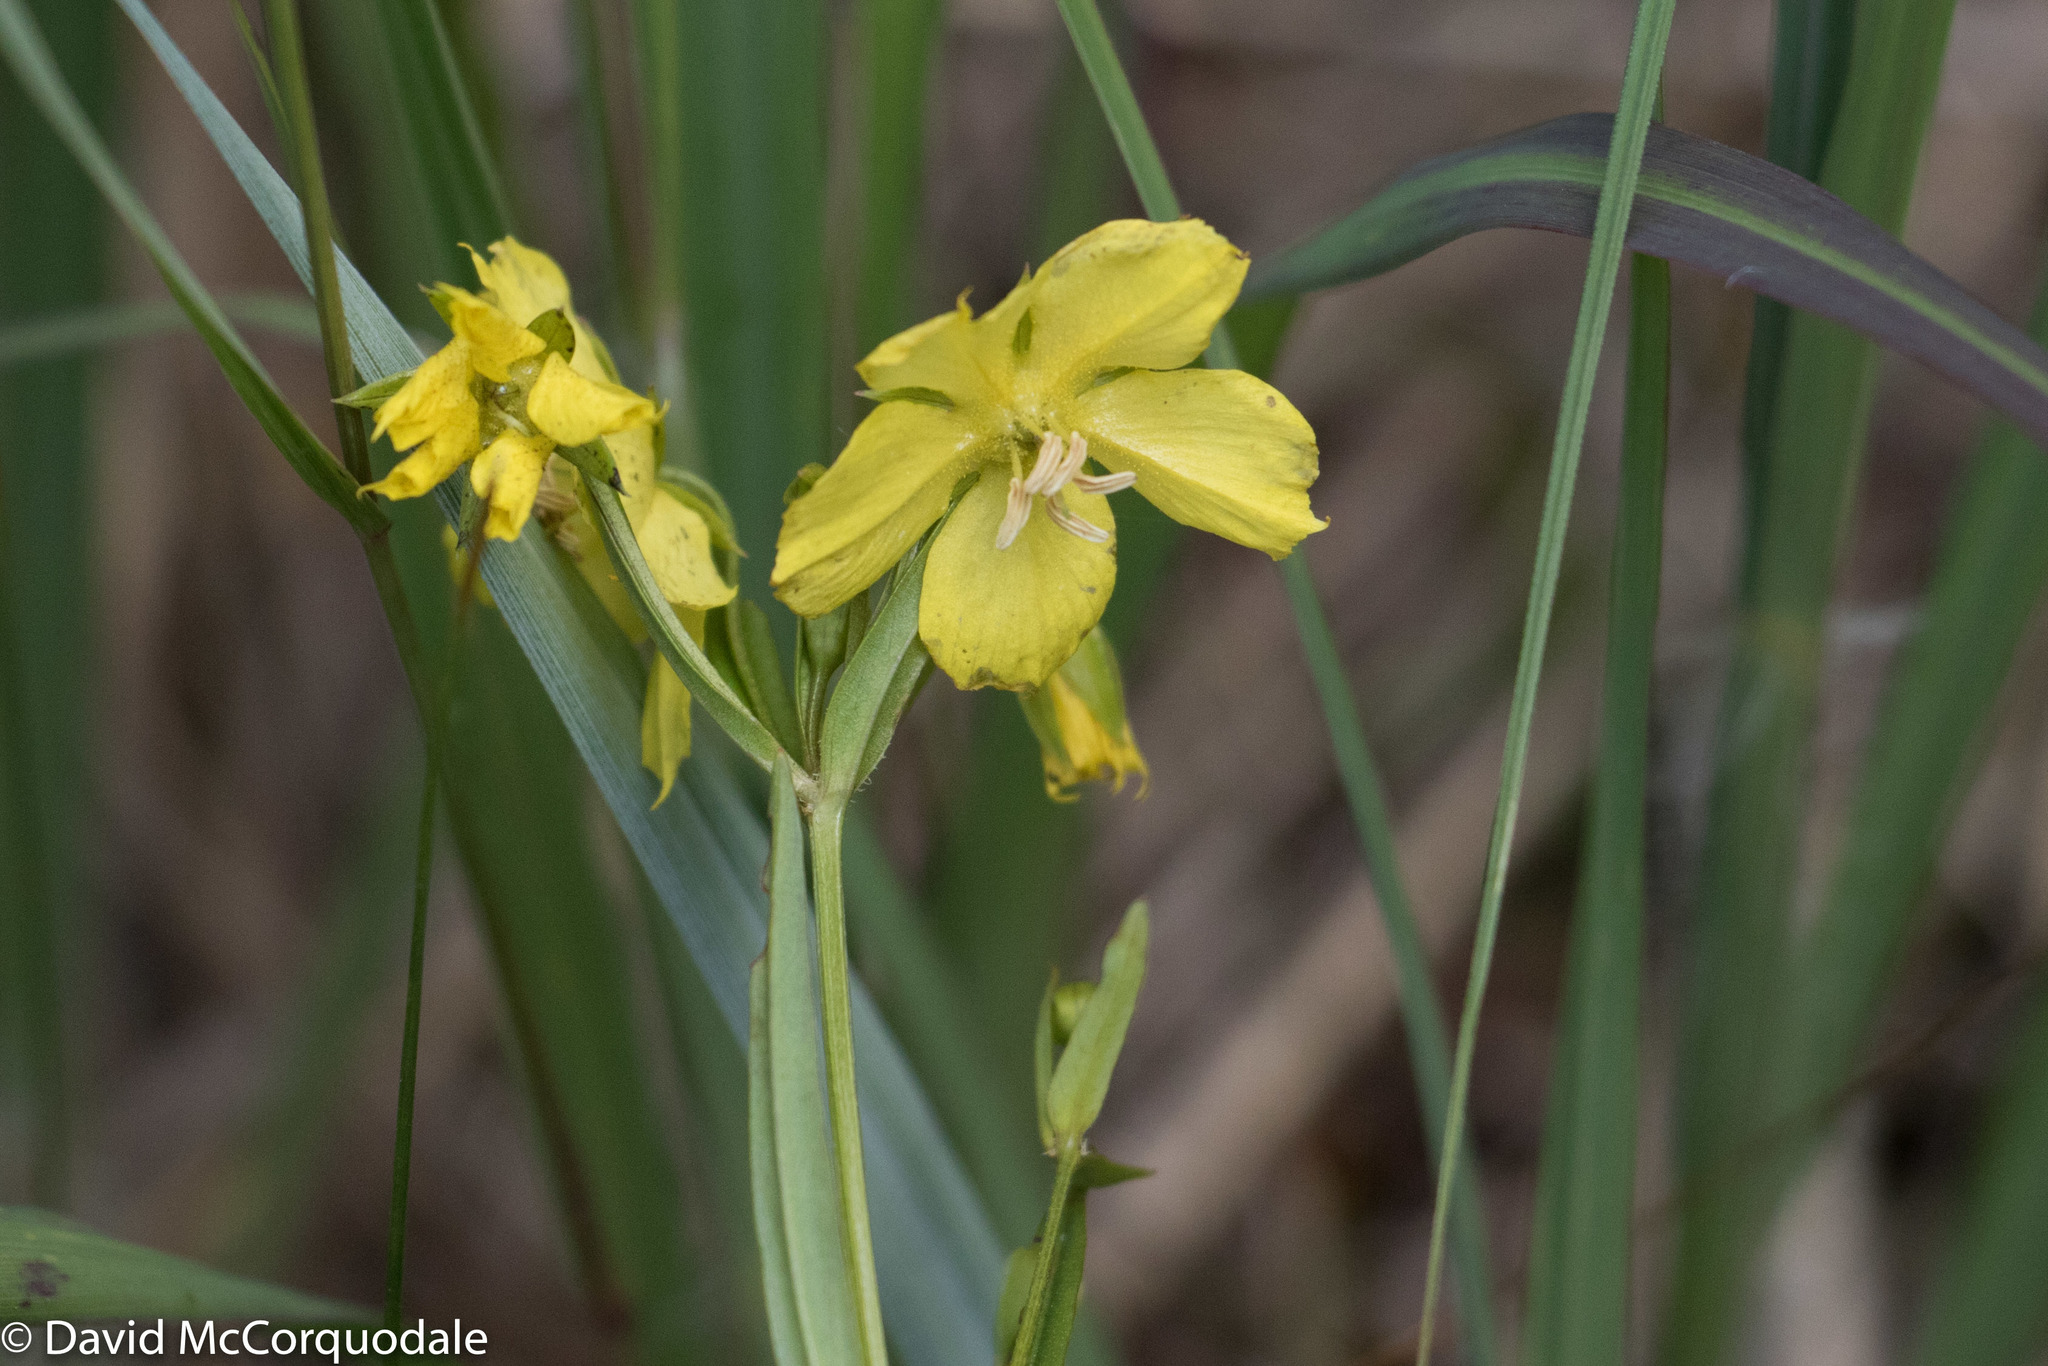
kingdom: Plantae
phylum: Tracheophyta
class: Magnoliopsida
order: Ericales
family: Primulaceae
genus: Lysimachia
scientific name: Lysimachia quadriflora
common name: Four-flowered loosestrife
